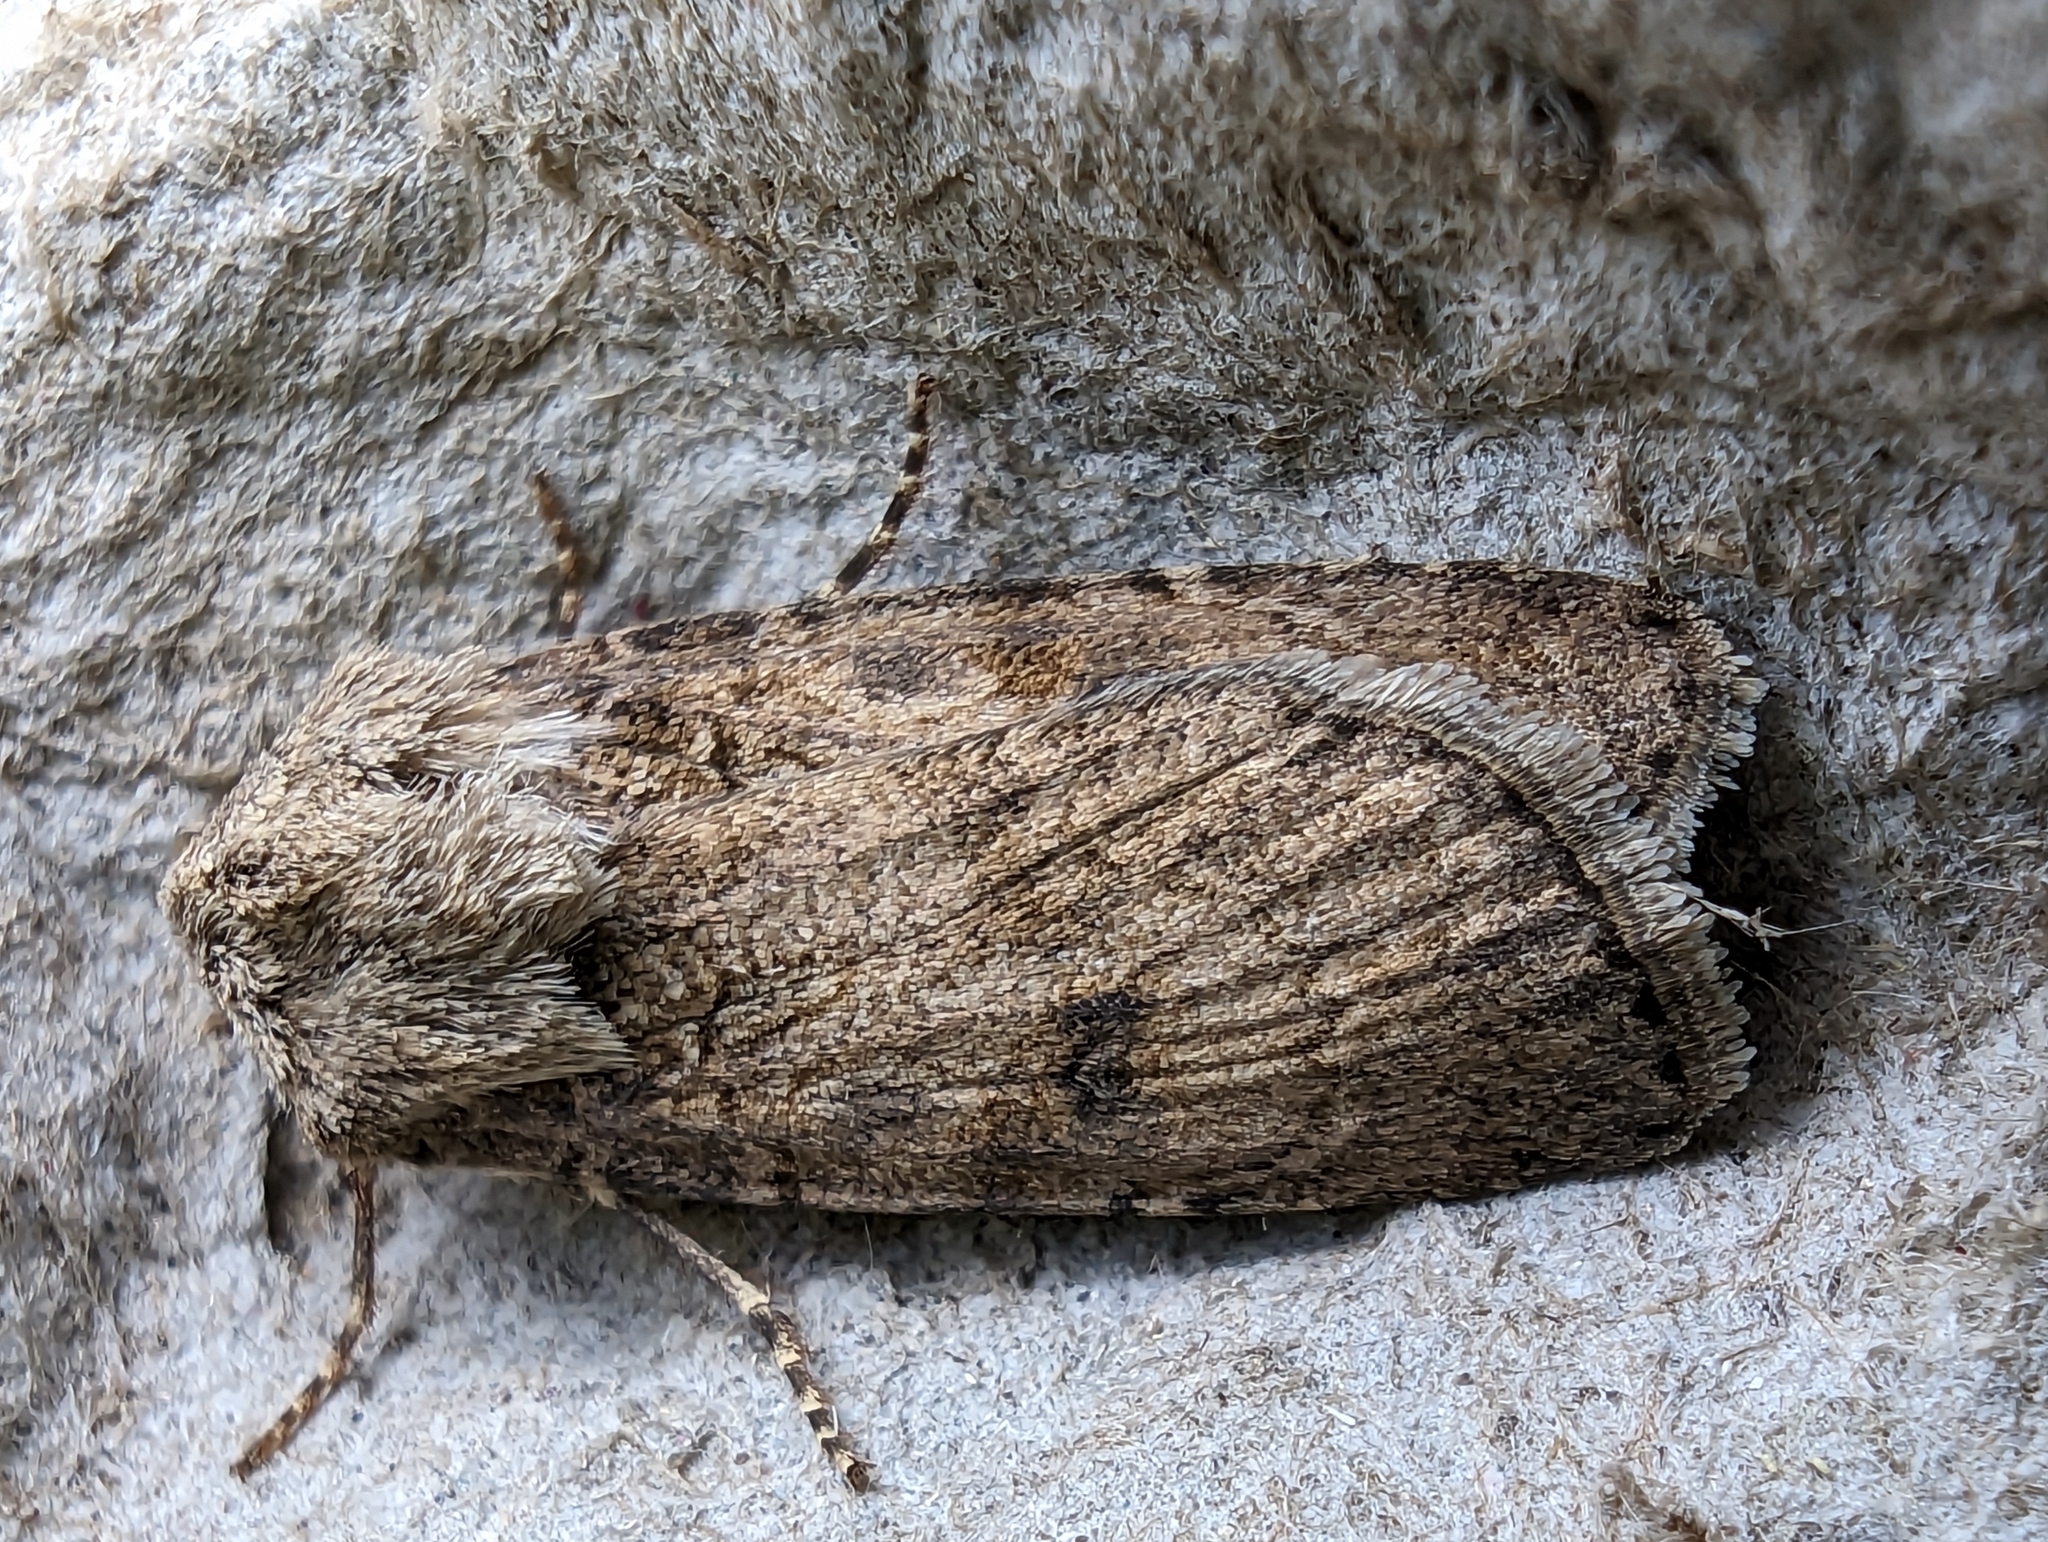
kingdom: Animalia
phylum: Arthropoda
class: Insecta
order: Lepidoptera
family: Noctuidae
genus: Agrotis
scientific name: Agrotis segetum
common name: Turnip moth
